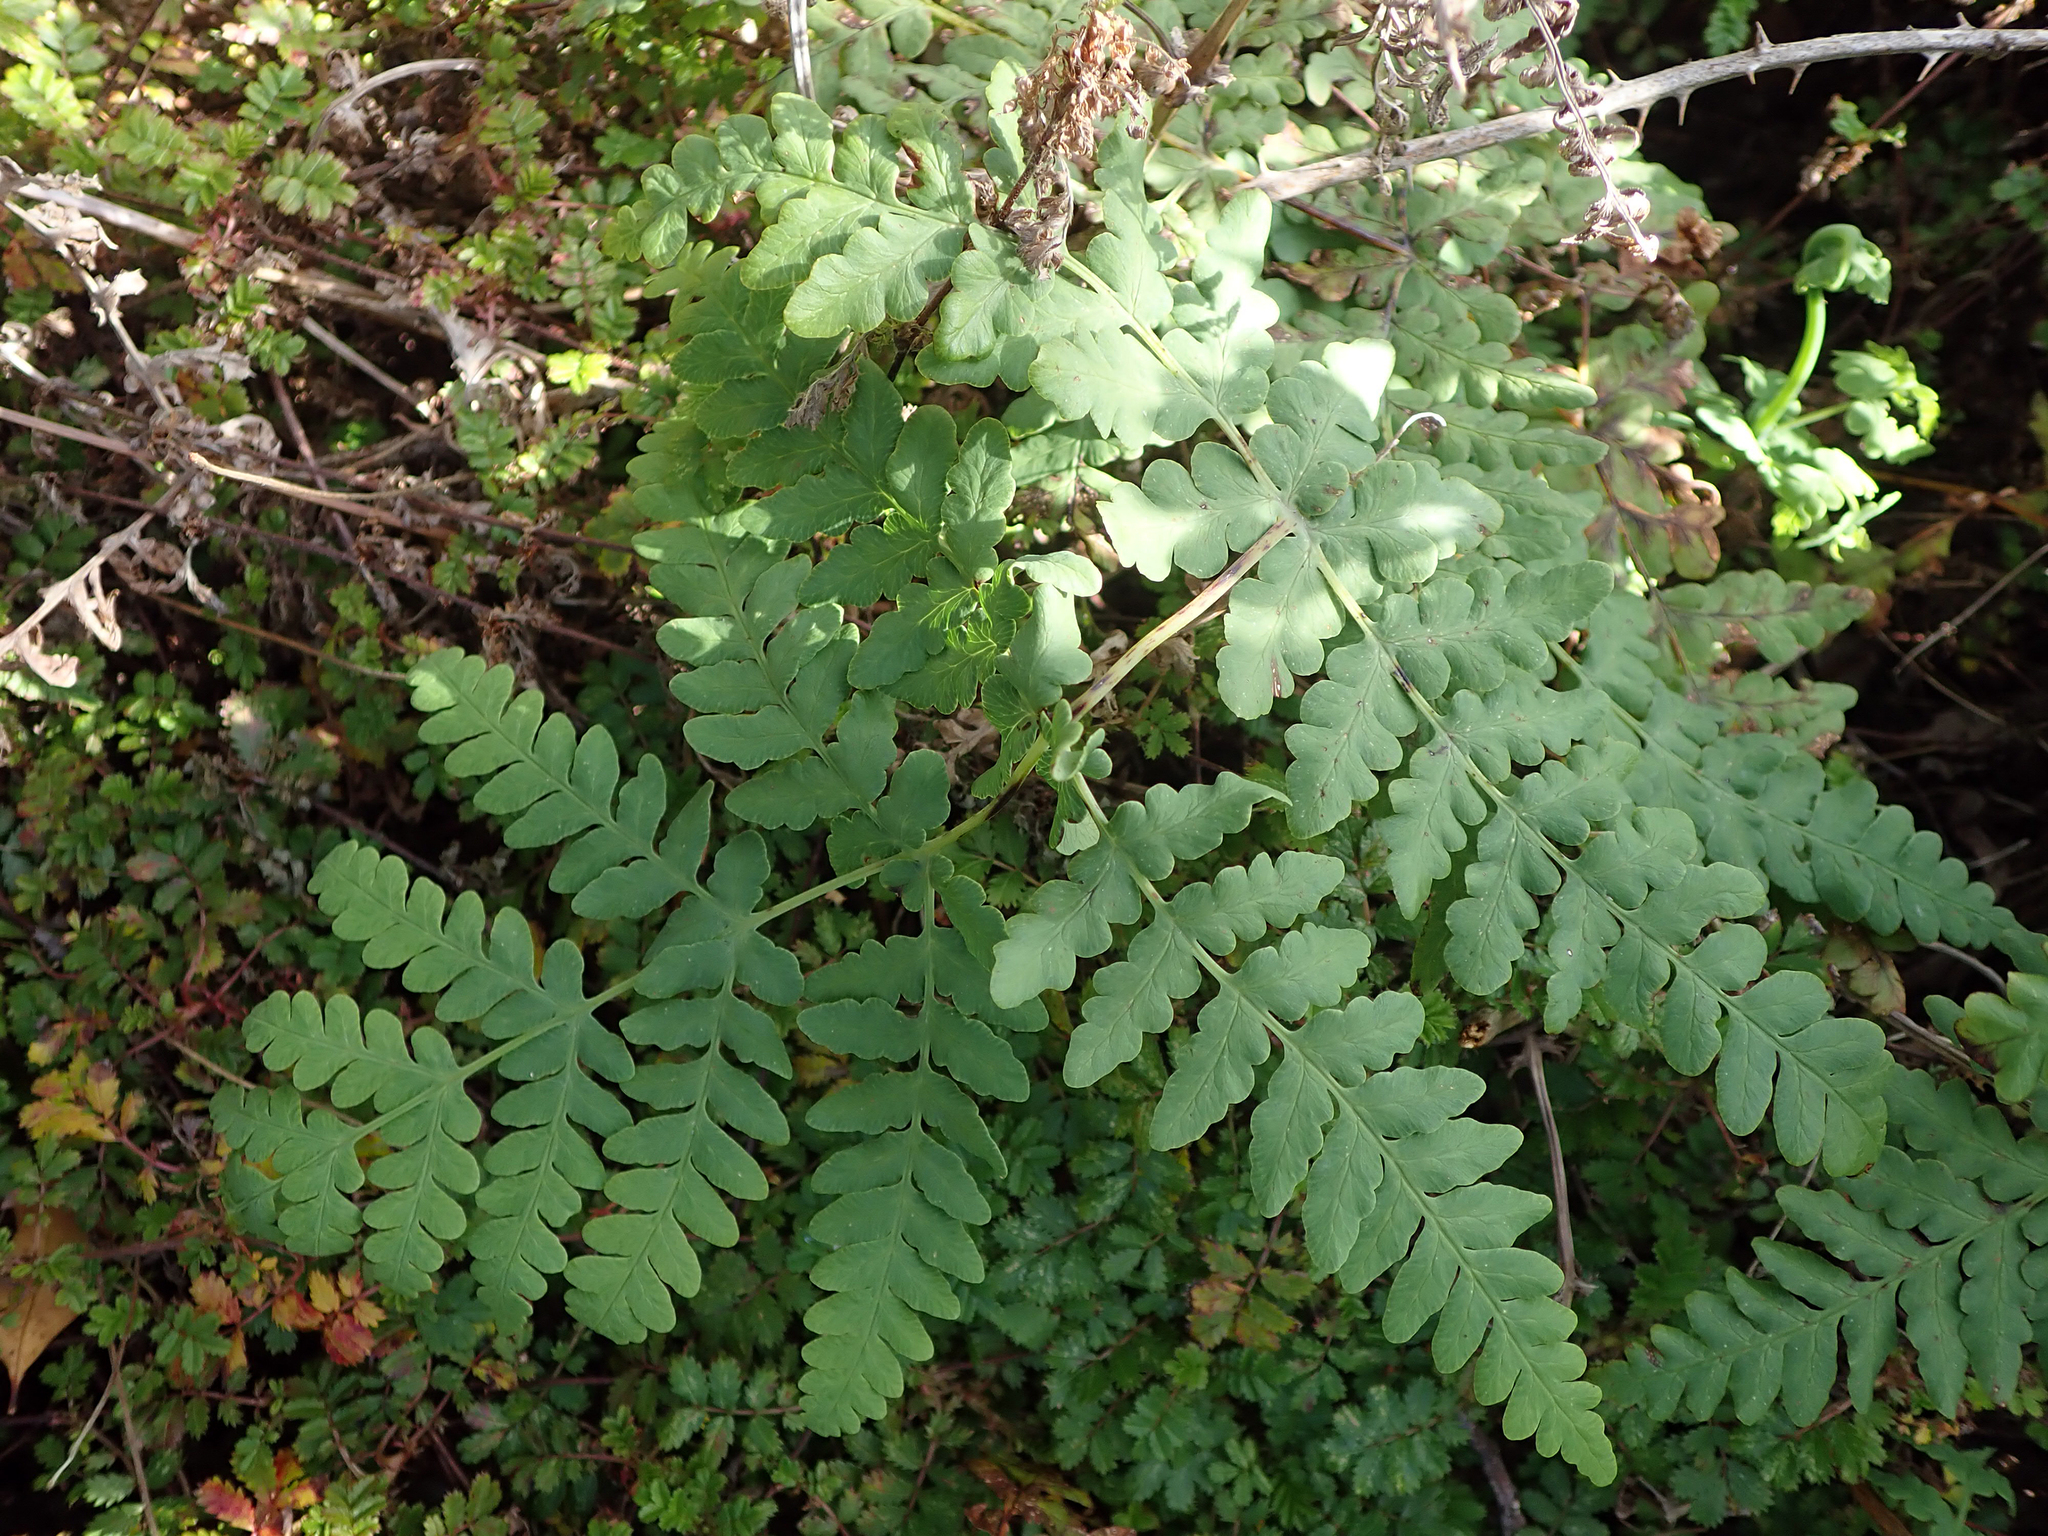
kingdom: Plantae
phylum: Tracheophyta
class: Polypodiopsida
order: Polypodiales
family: Dennstaedtiaceae
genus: Histiopteris
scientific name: Histiopteris incisa
